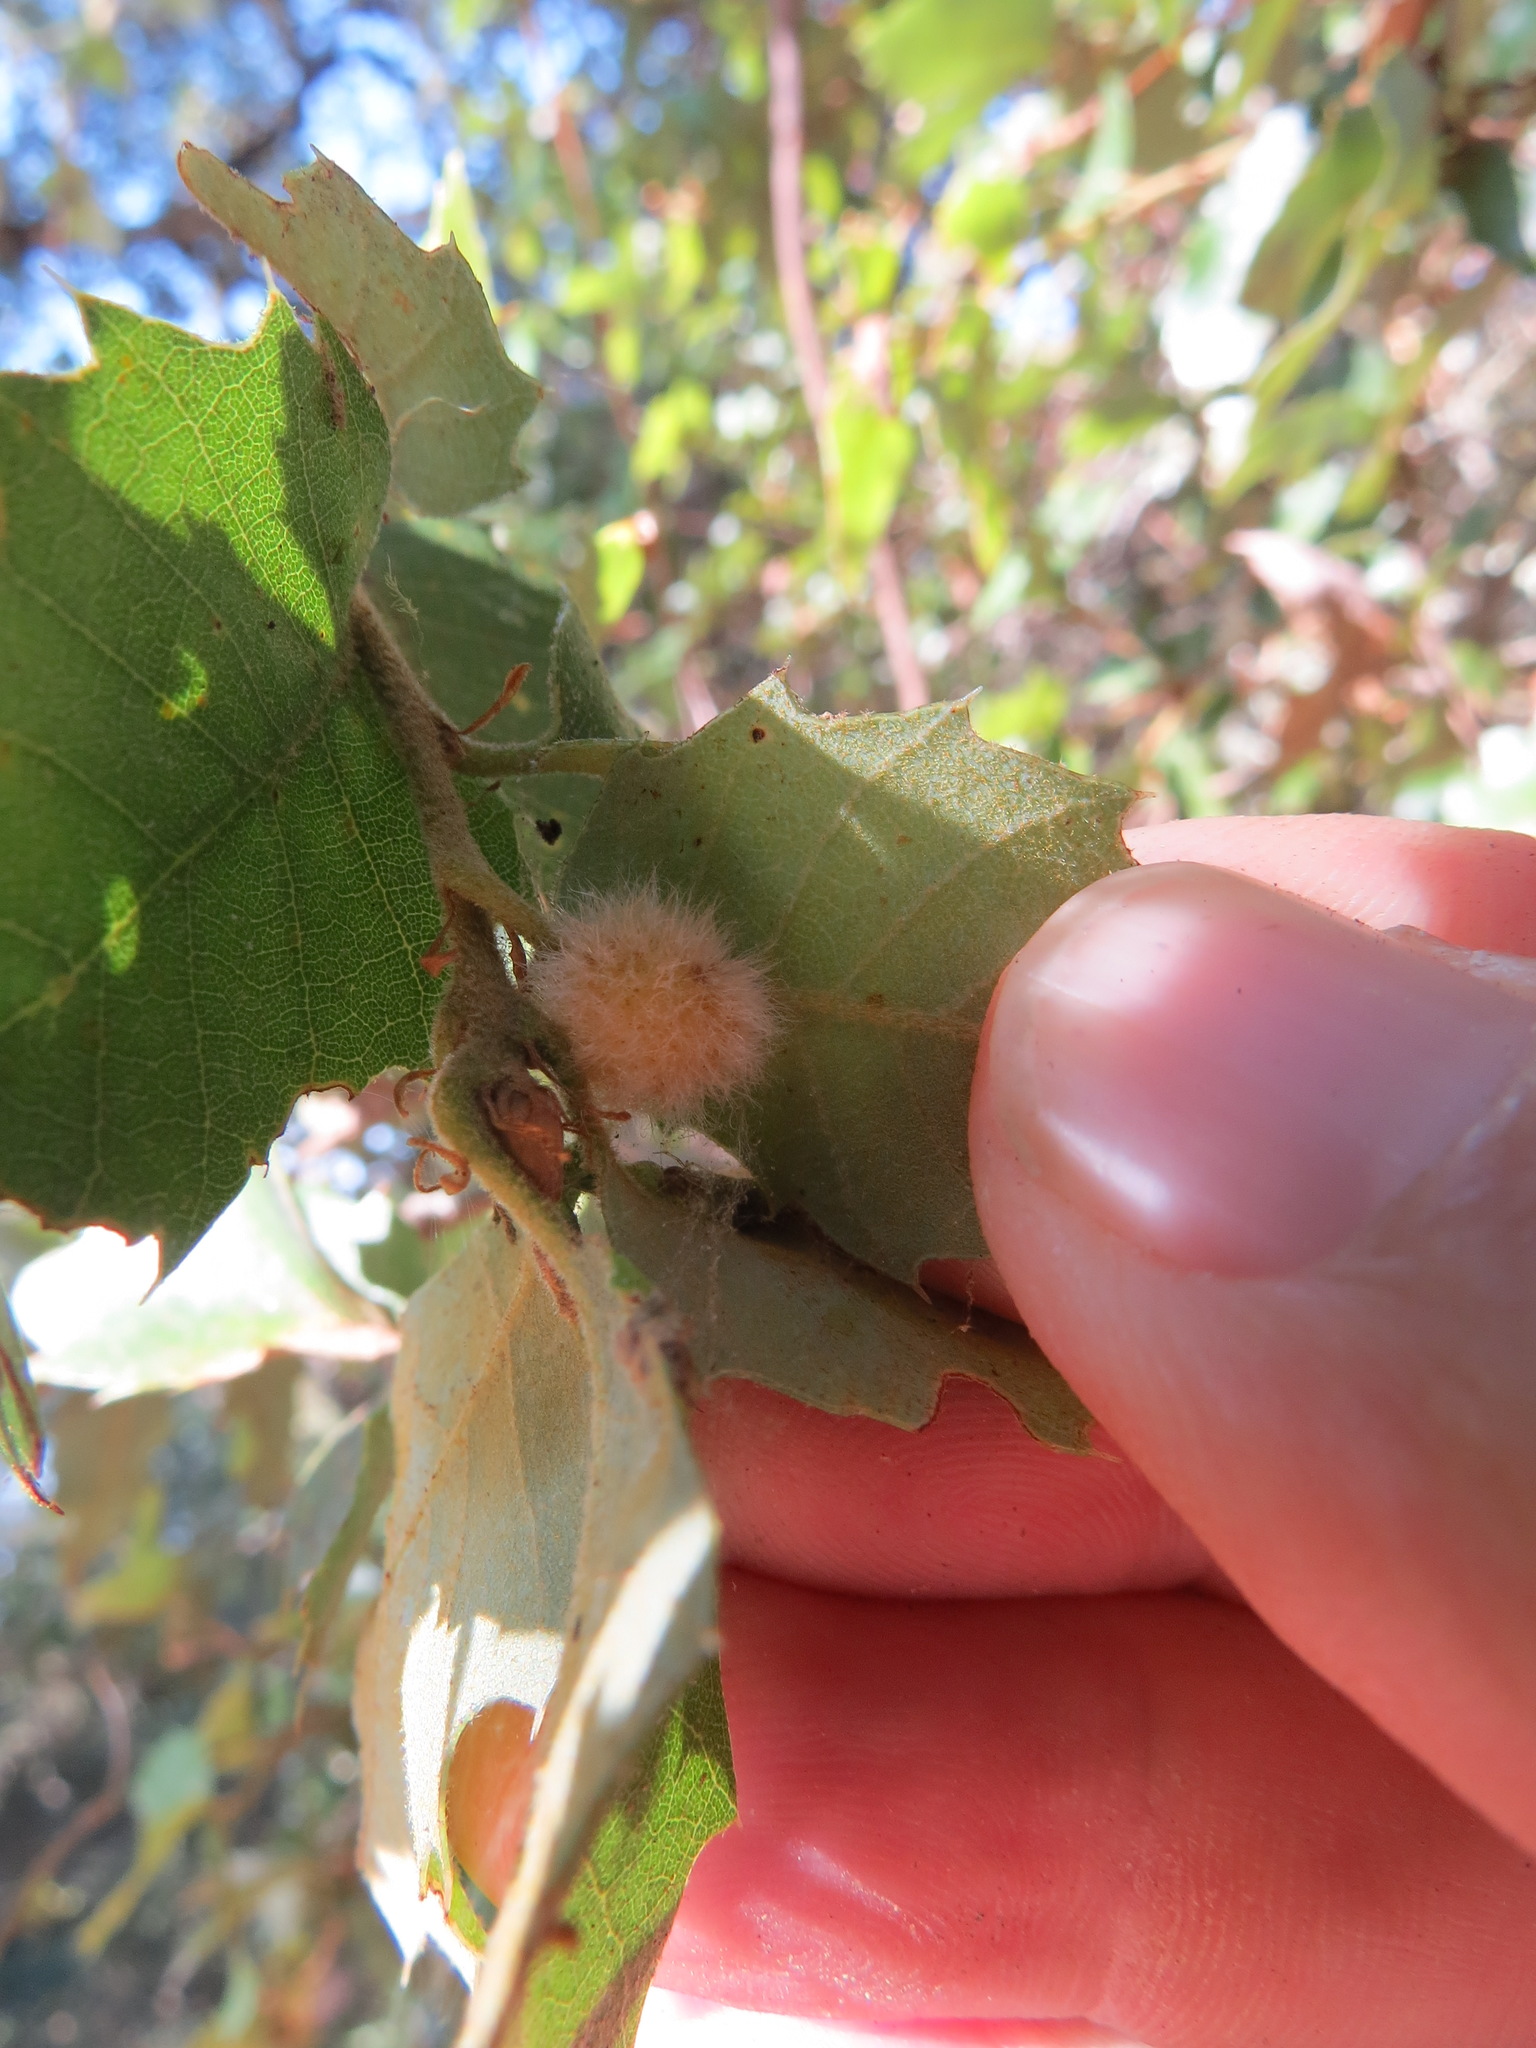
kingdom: Animalia
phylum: Arthropoda
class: Insecta
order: Hymenoptera
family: Cynipidae
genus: Disholandricus
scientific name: Disholandricus
